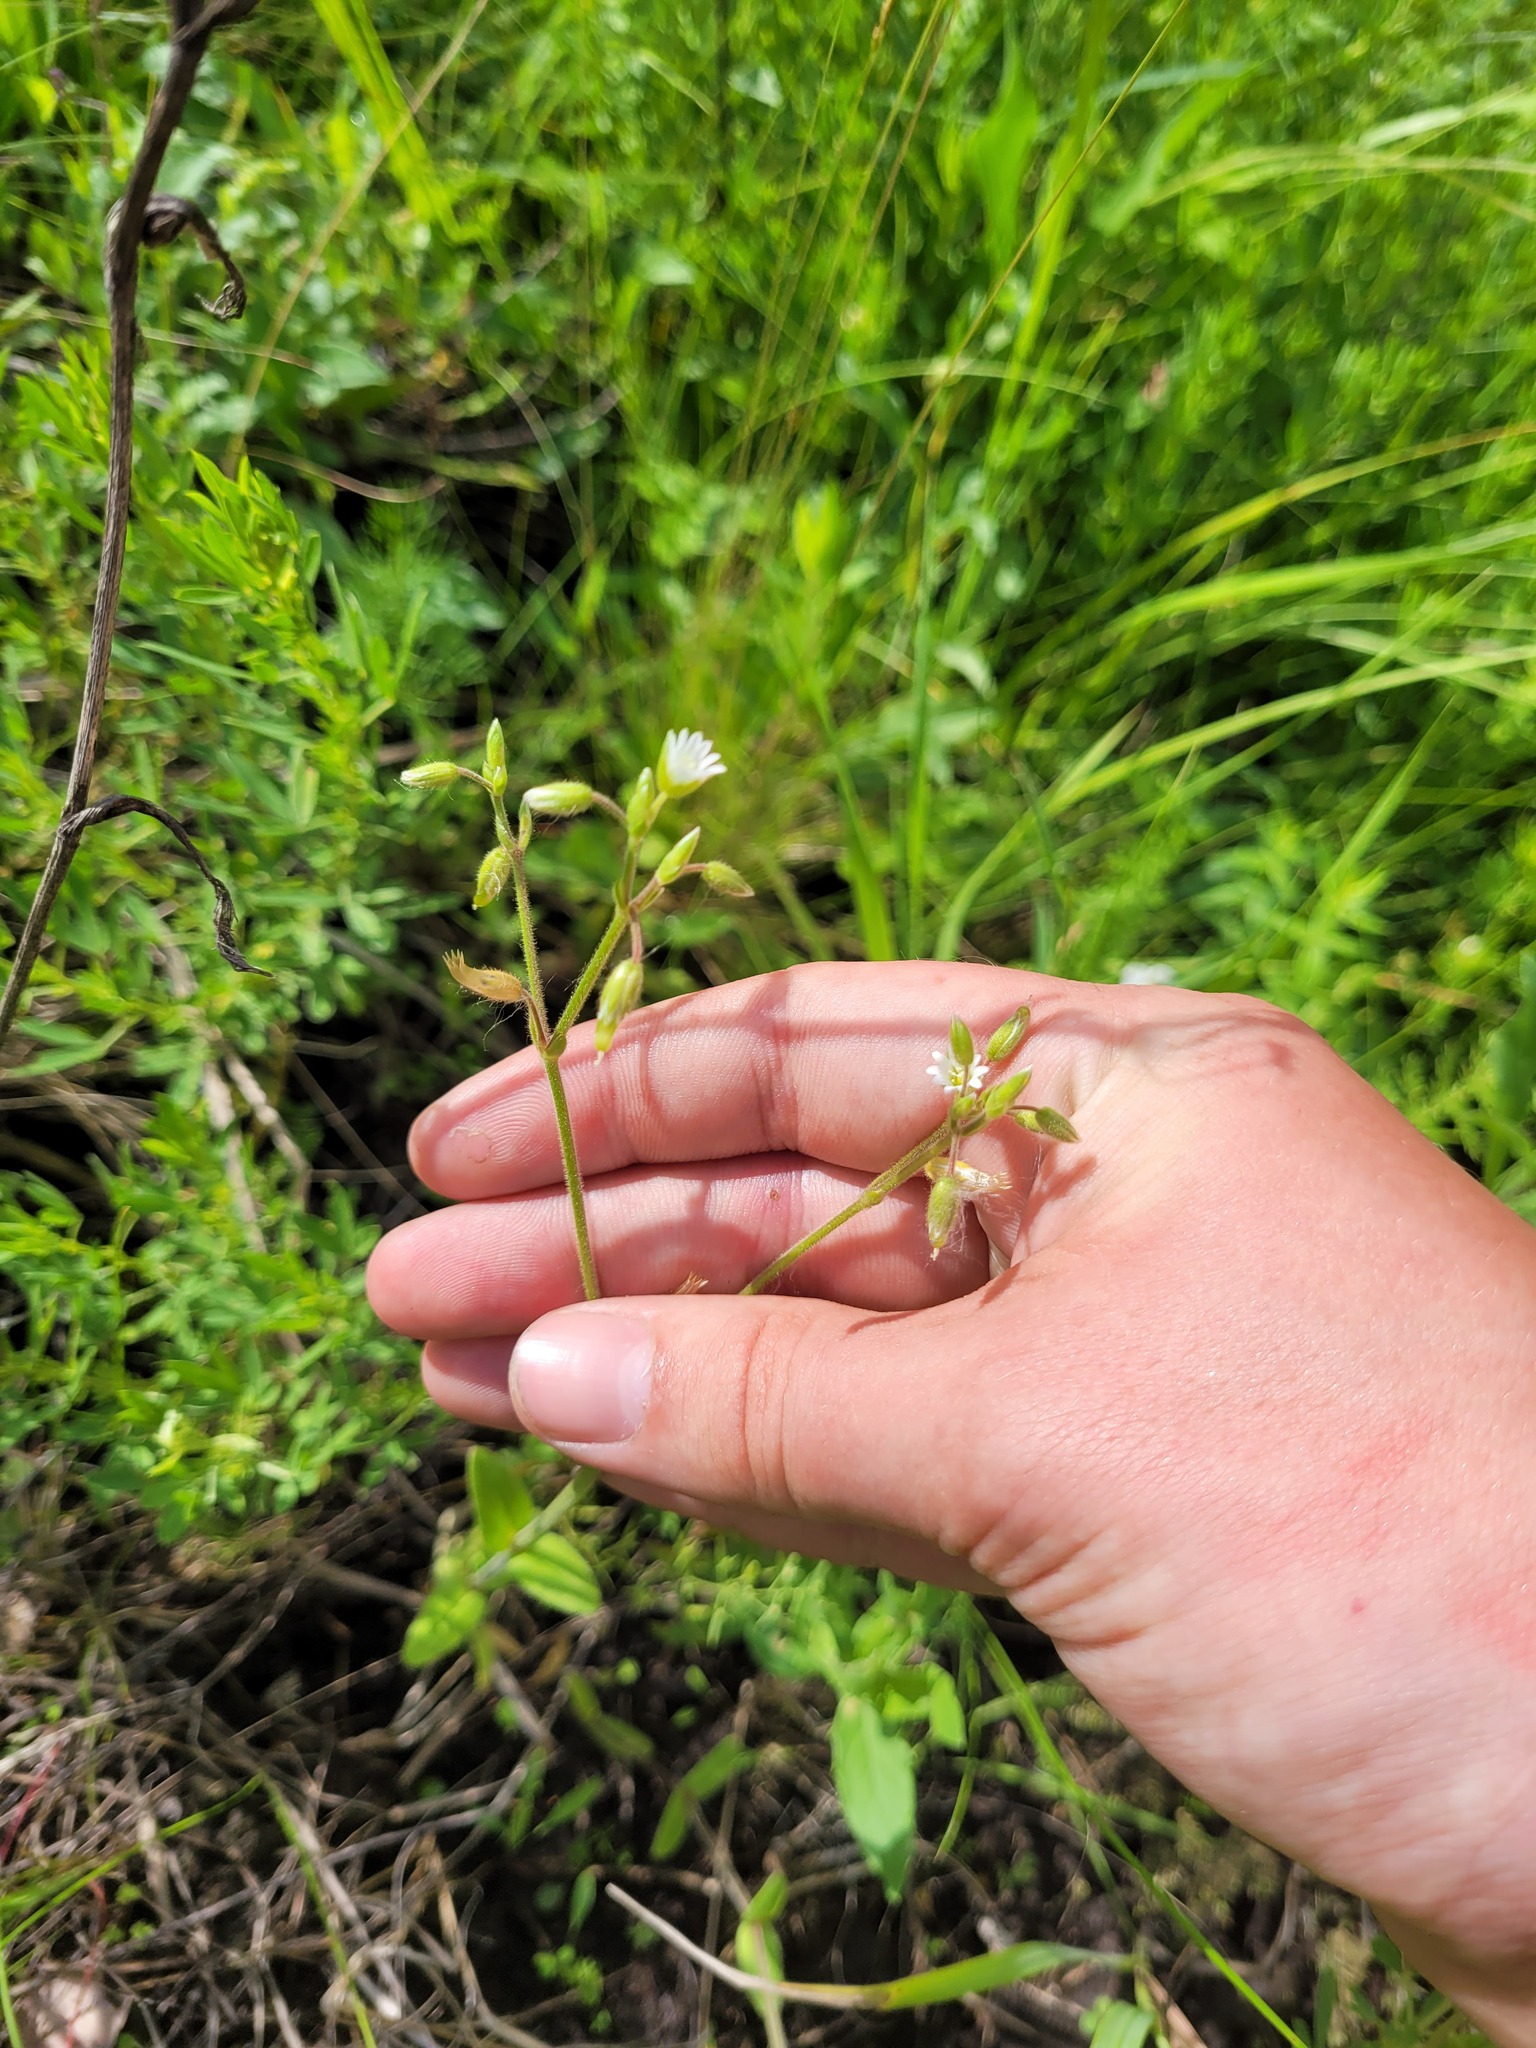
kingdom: Plantae
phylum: Tracheophyta
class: Magnoliopsida
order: Caryophyllales
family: Caryophyllaceae
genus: Cerastium
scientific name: Cerastium holosteoides
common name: Big chickweed
